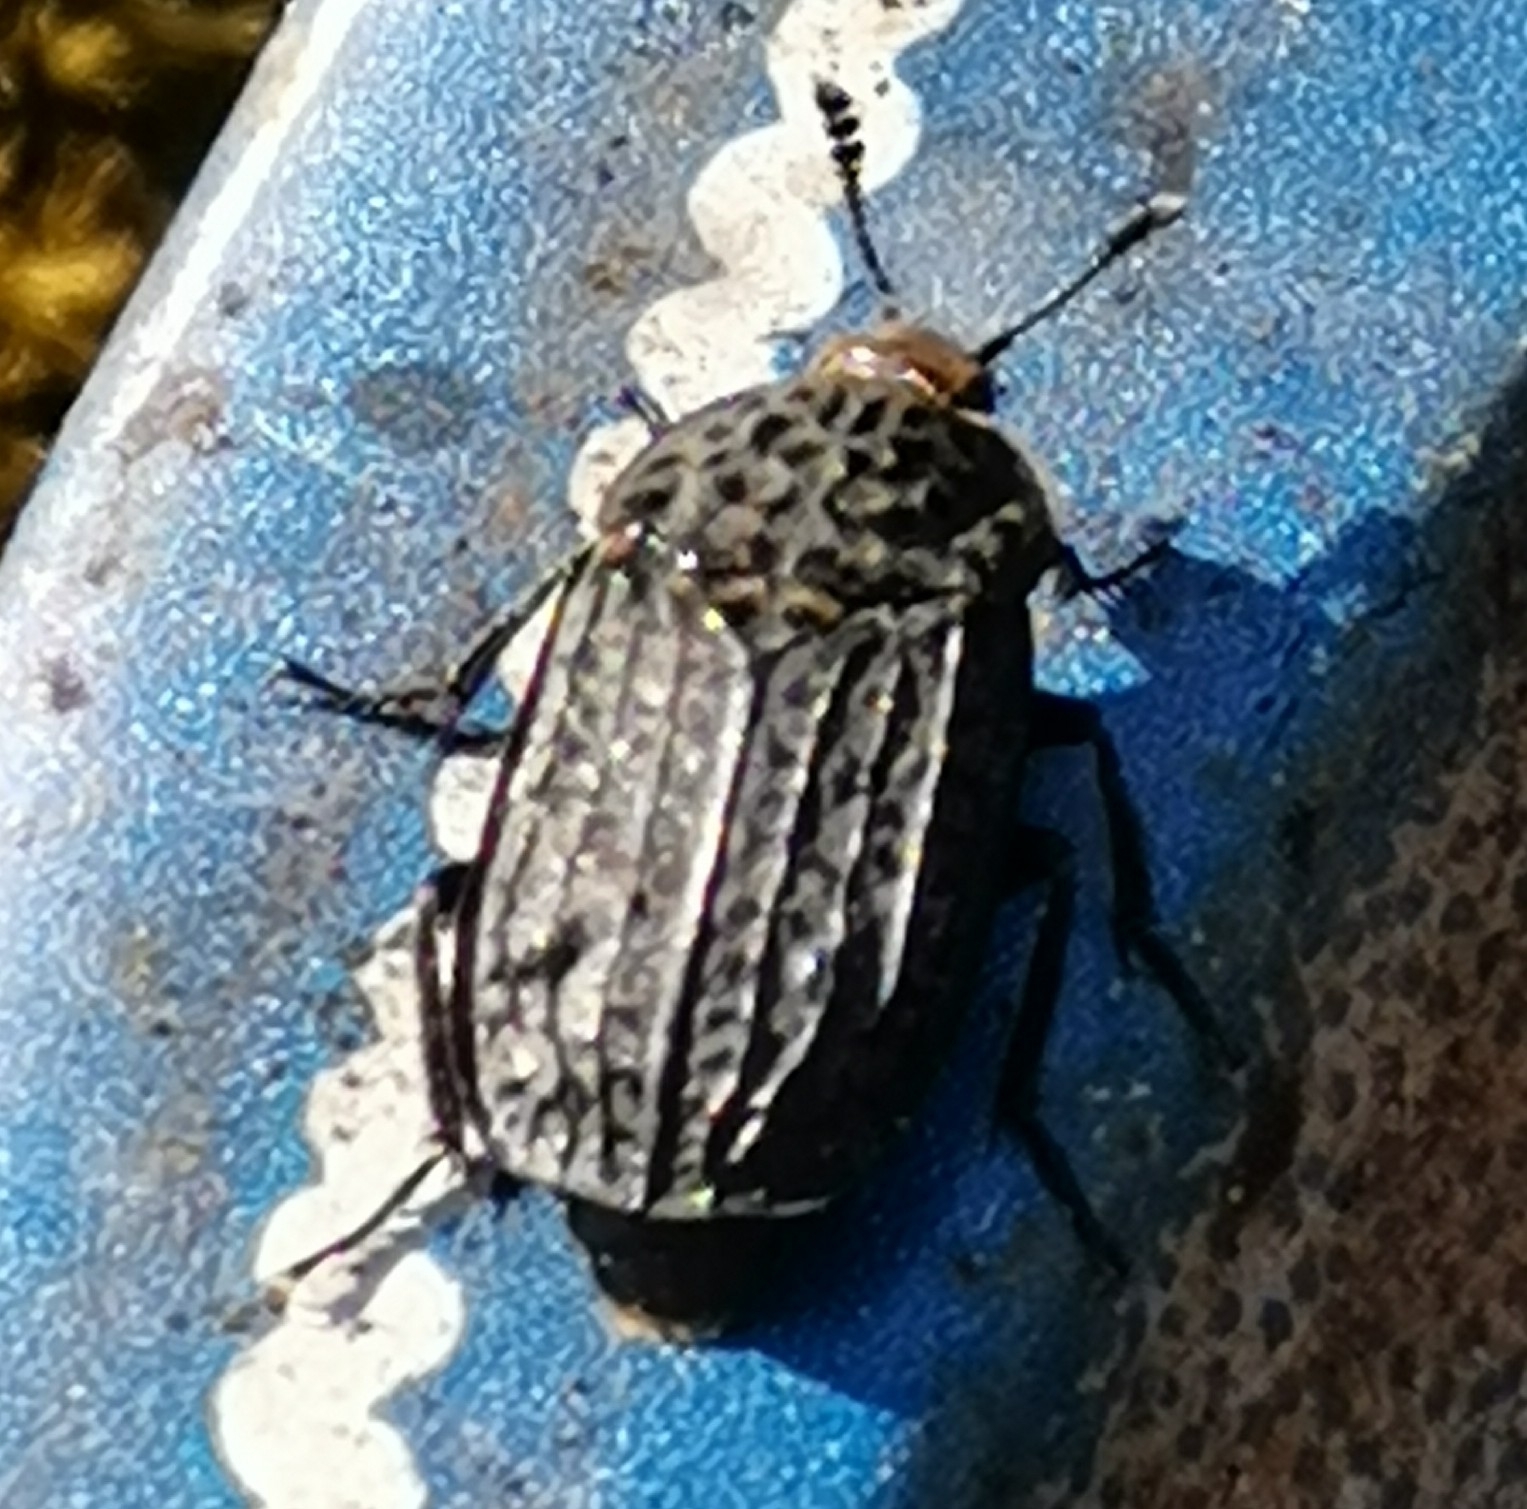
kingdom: Animalia
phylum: Arthropoda
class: Insecta
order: Coleoptera
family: Staphylinidae
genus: Thanatophilus
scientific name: Thanatophilus rugosus
